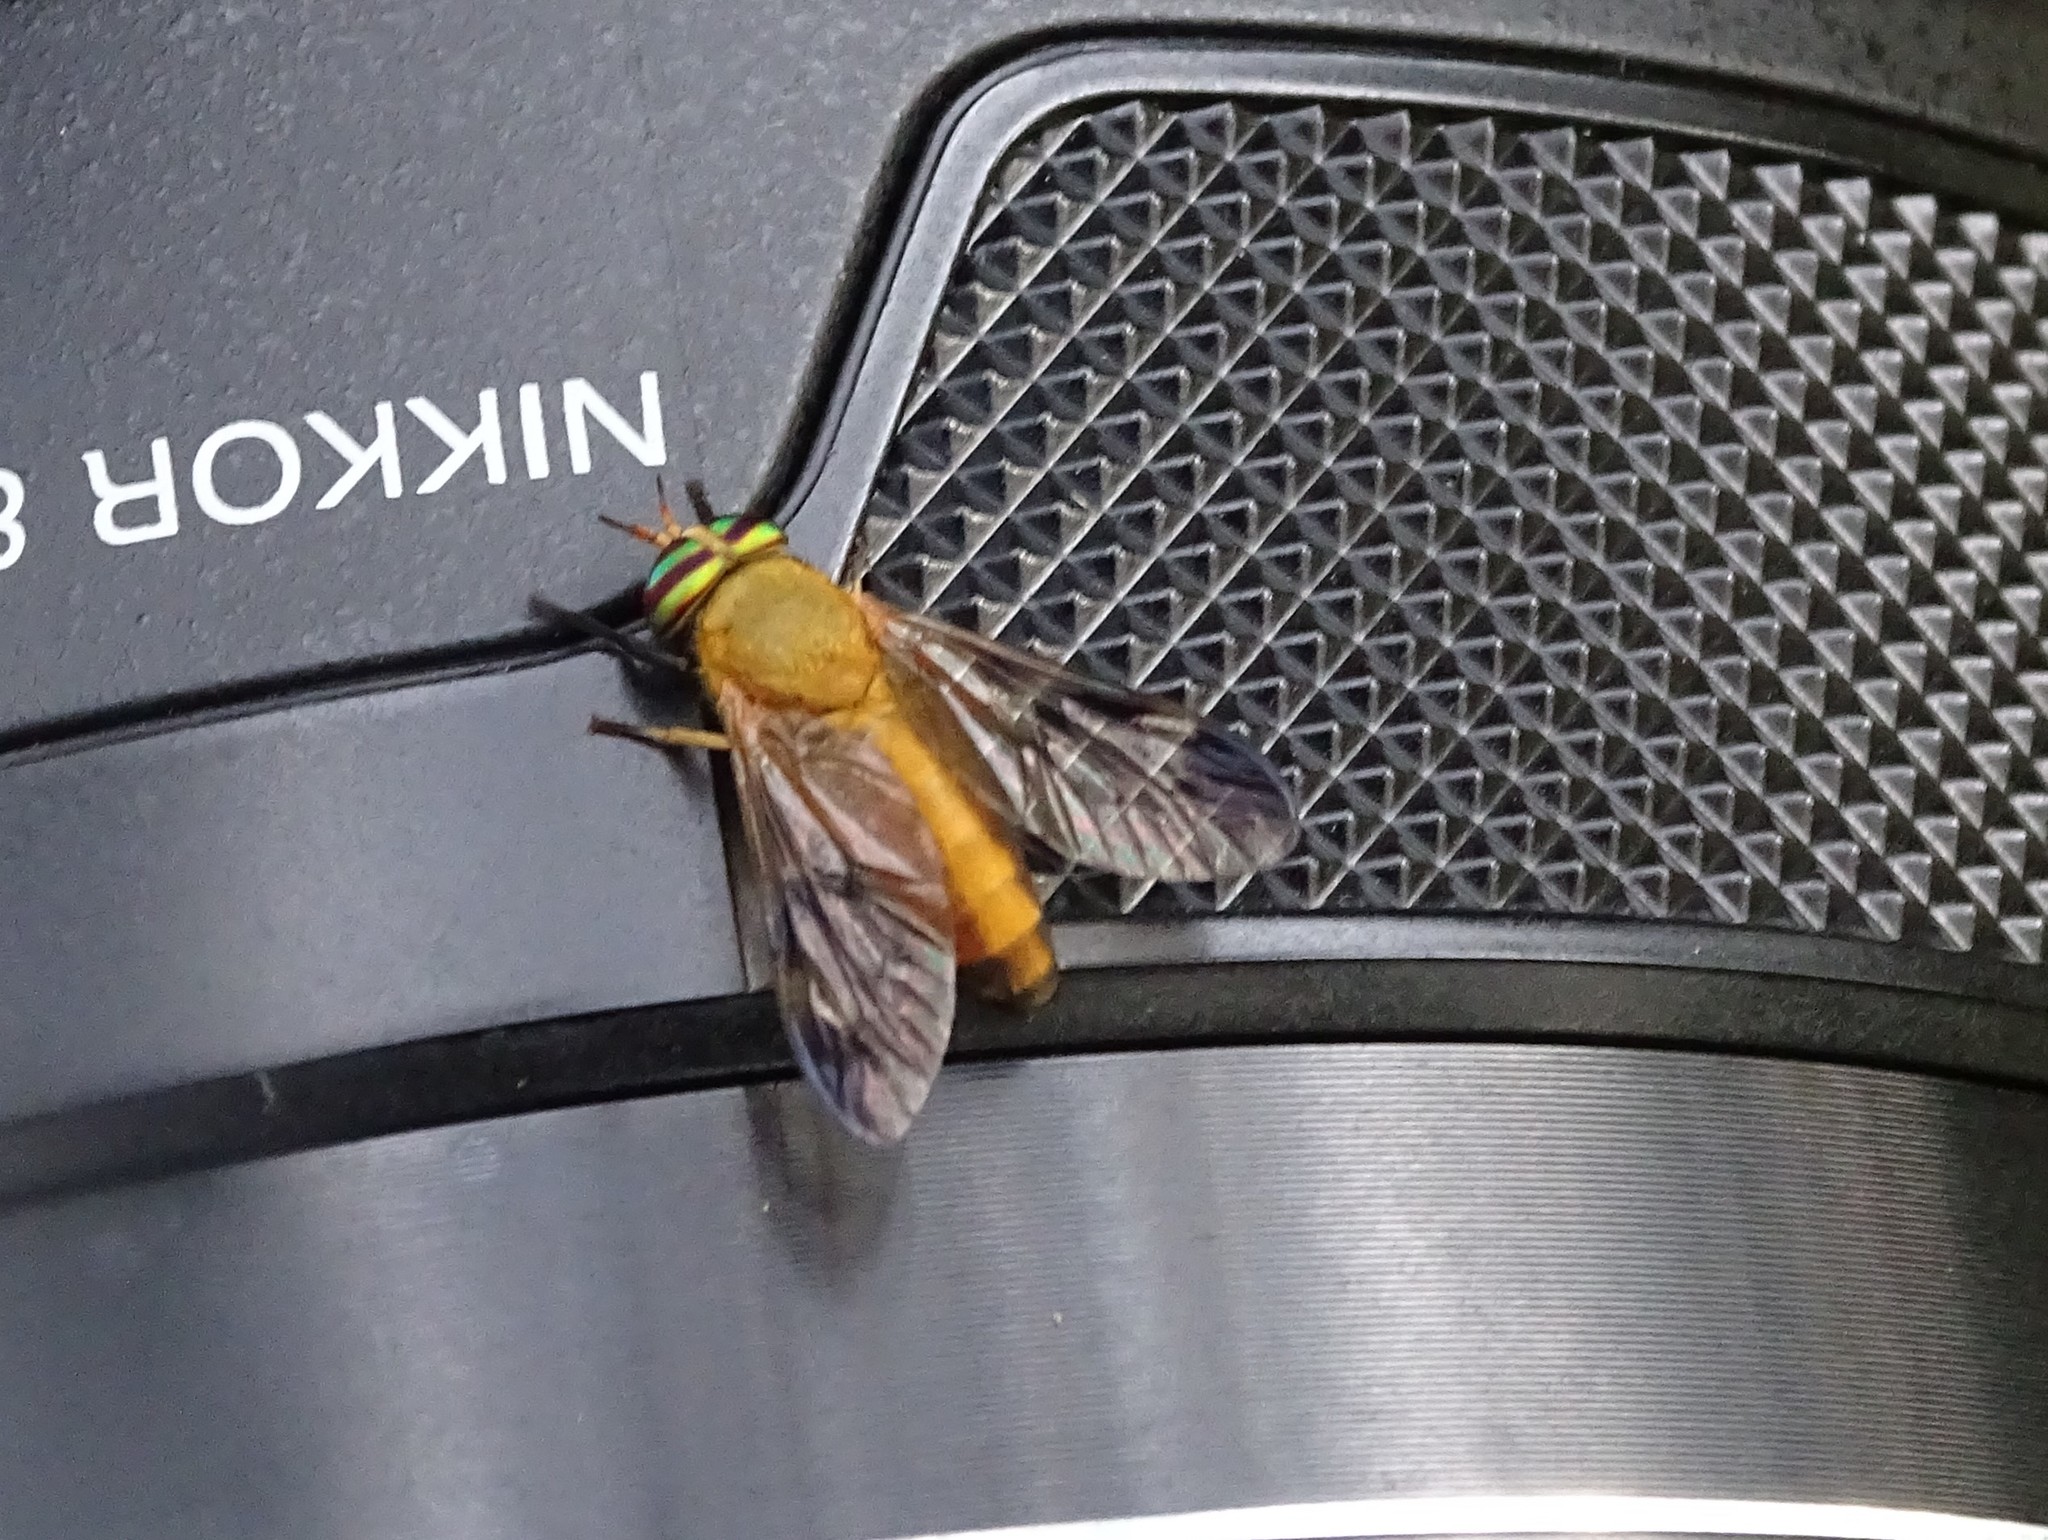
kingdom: Animalia
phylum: Arthropoda
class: Insecta
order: Diptera
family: Tabanidae
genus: Diachlorus
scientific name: Diachlorus ferrugatus
